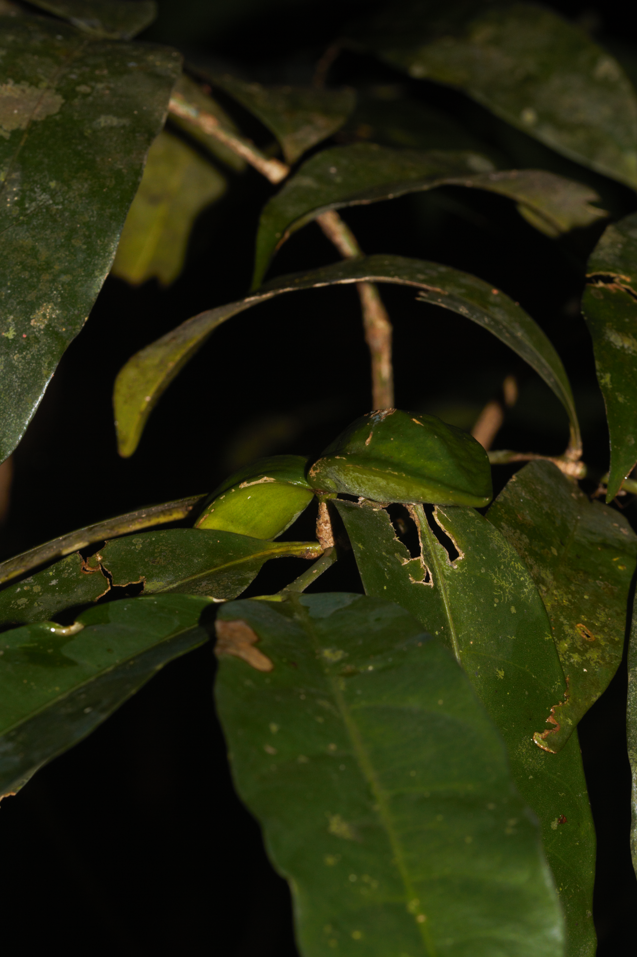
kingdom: Plantae
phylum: Tracheophyta
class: Magnoliopsida
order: Gentianales
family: Apocynaceae
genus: Tabernaemontana
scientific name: Tabernaemontana disticha
